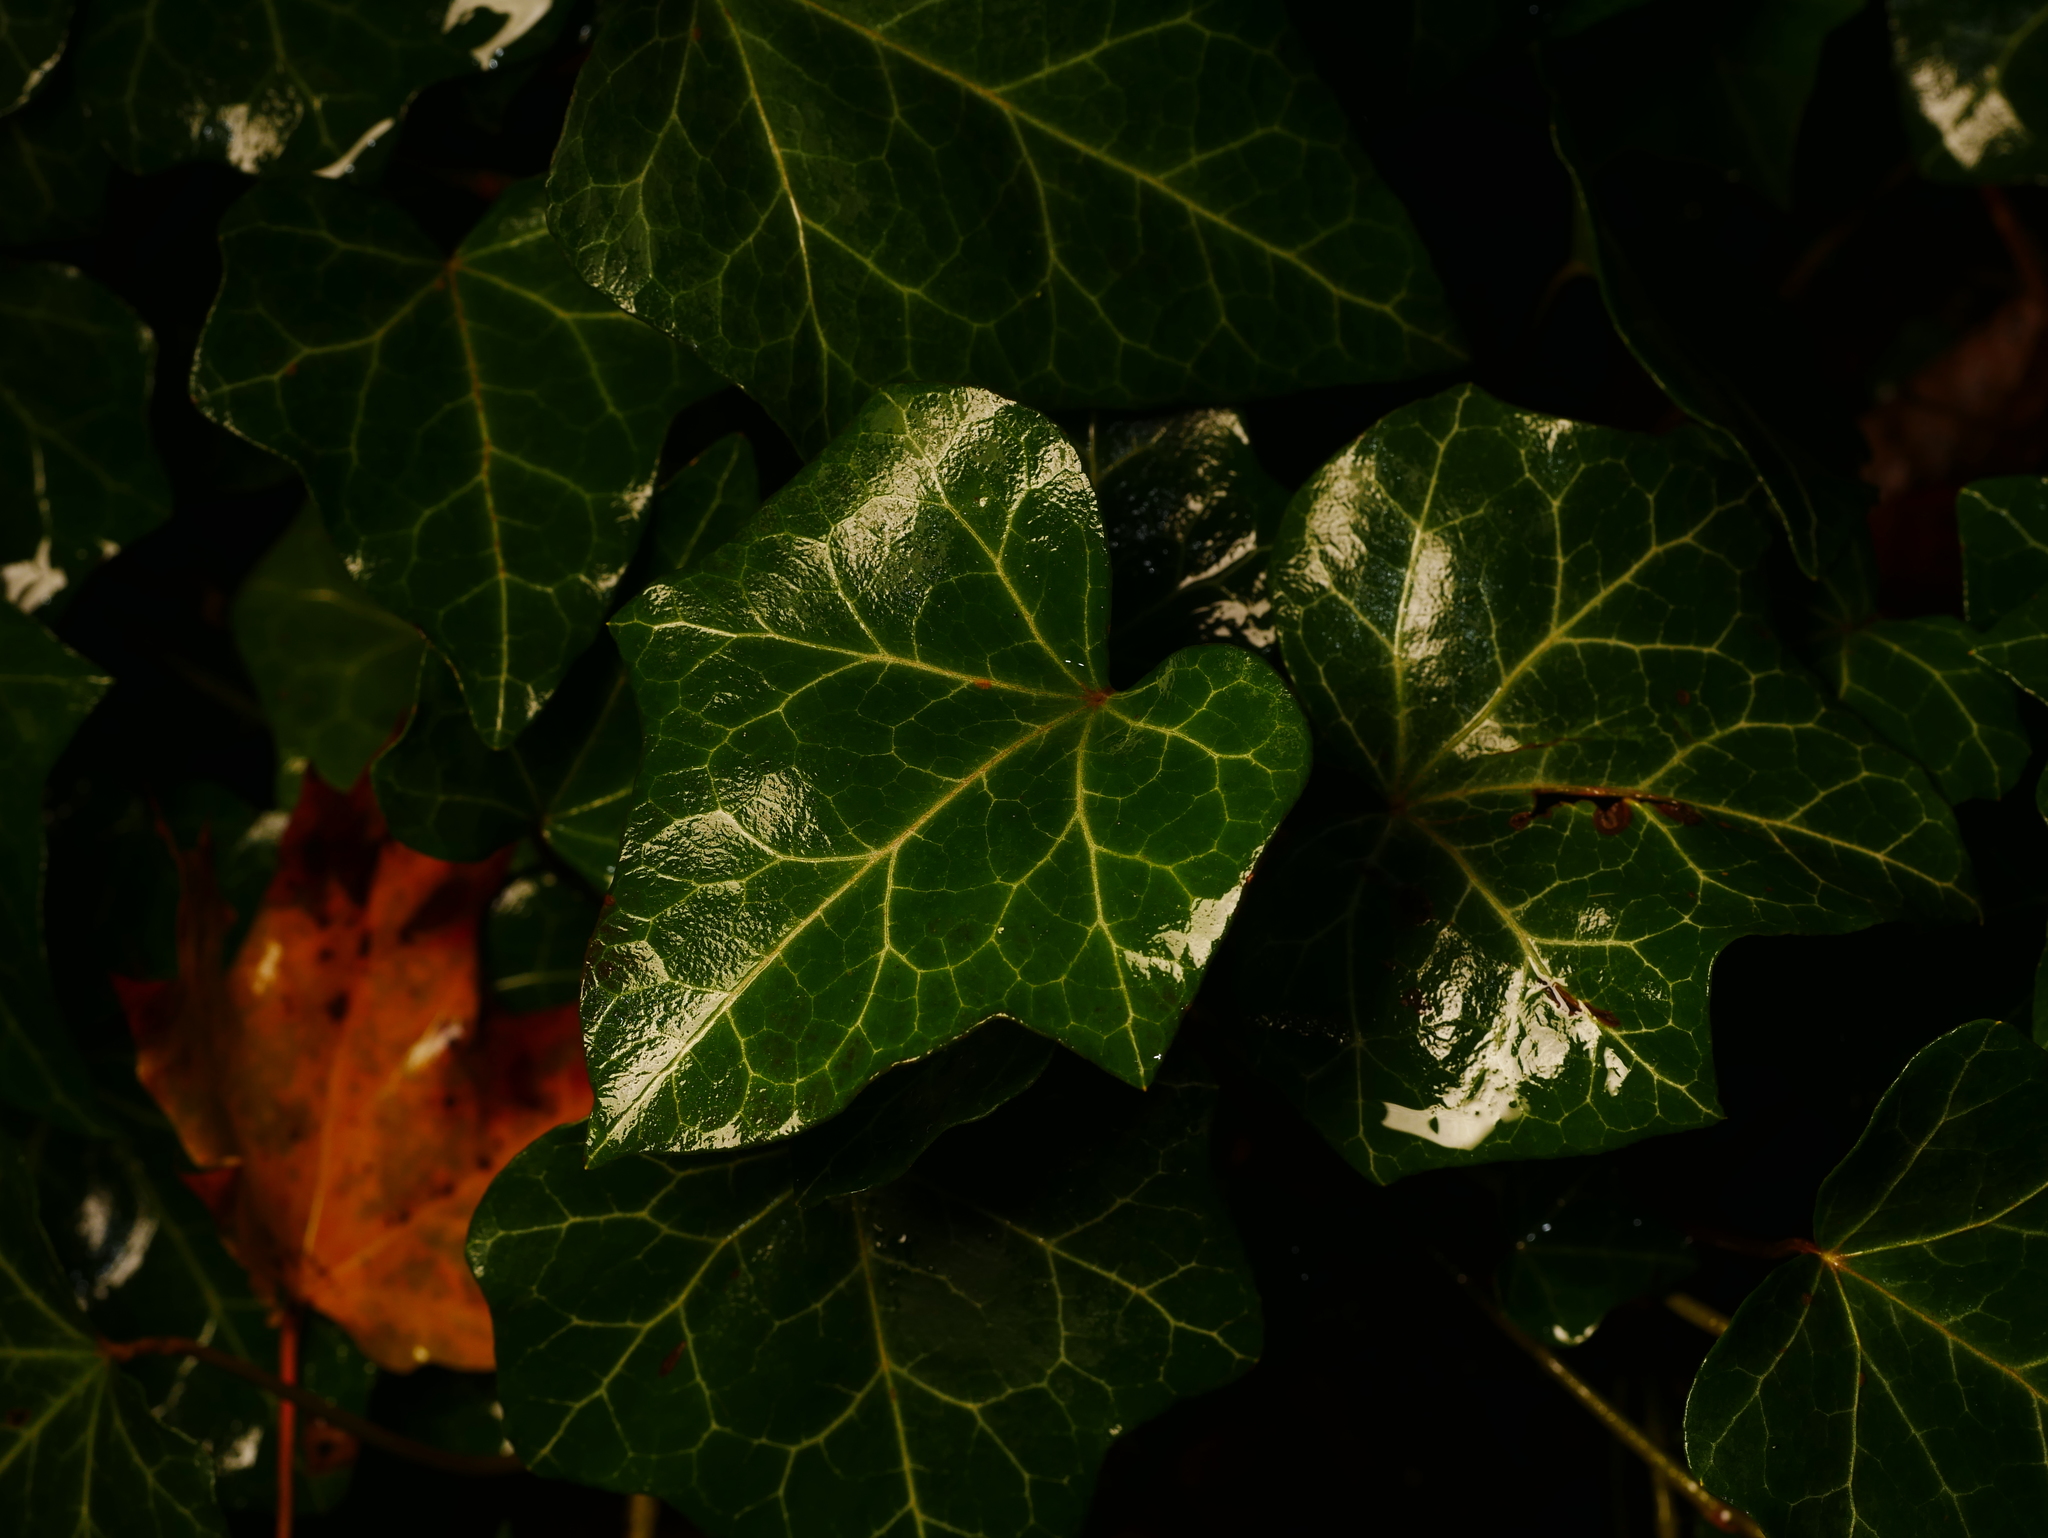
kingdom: Plantae
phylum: Tracheophyta
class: Magnoliopsida
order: Apiales
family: Araliaceae
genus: Hedera
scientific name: Hedera helix
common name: Ivy
